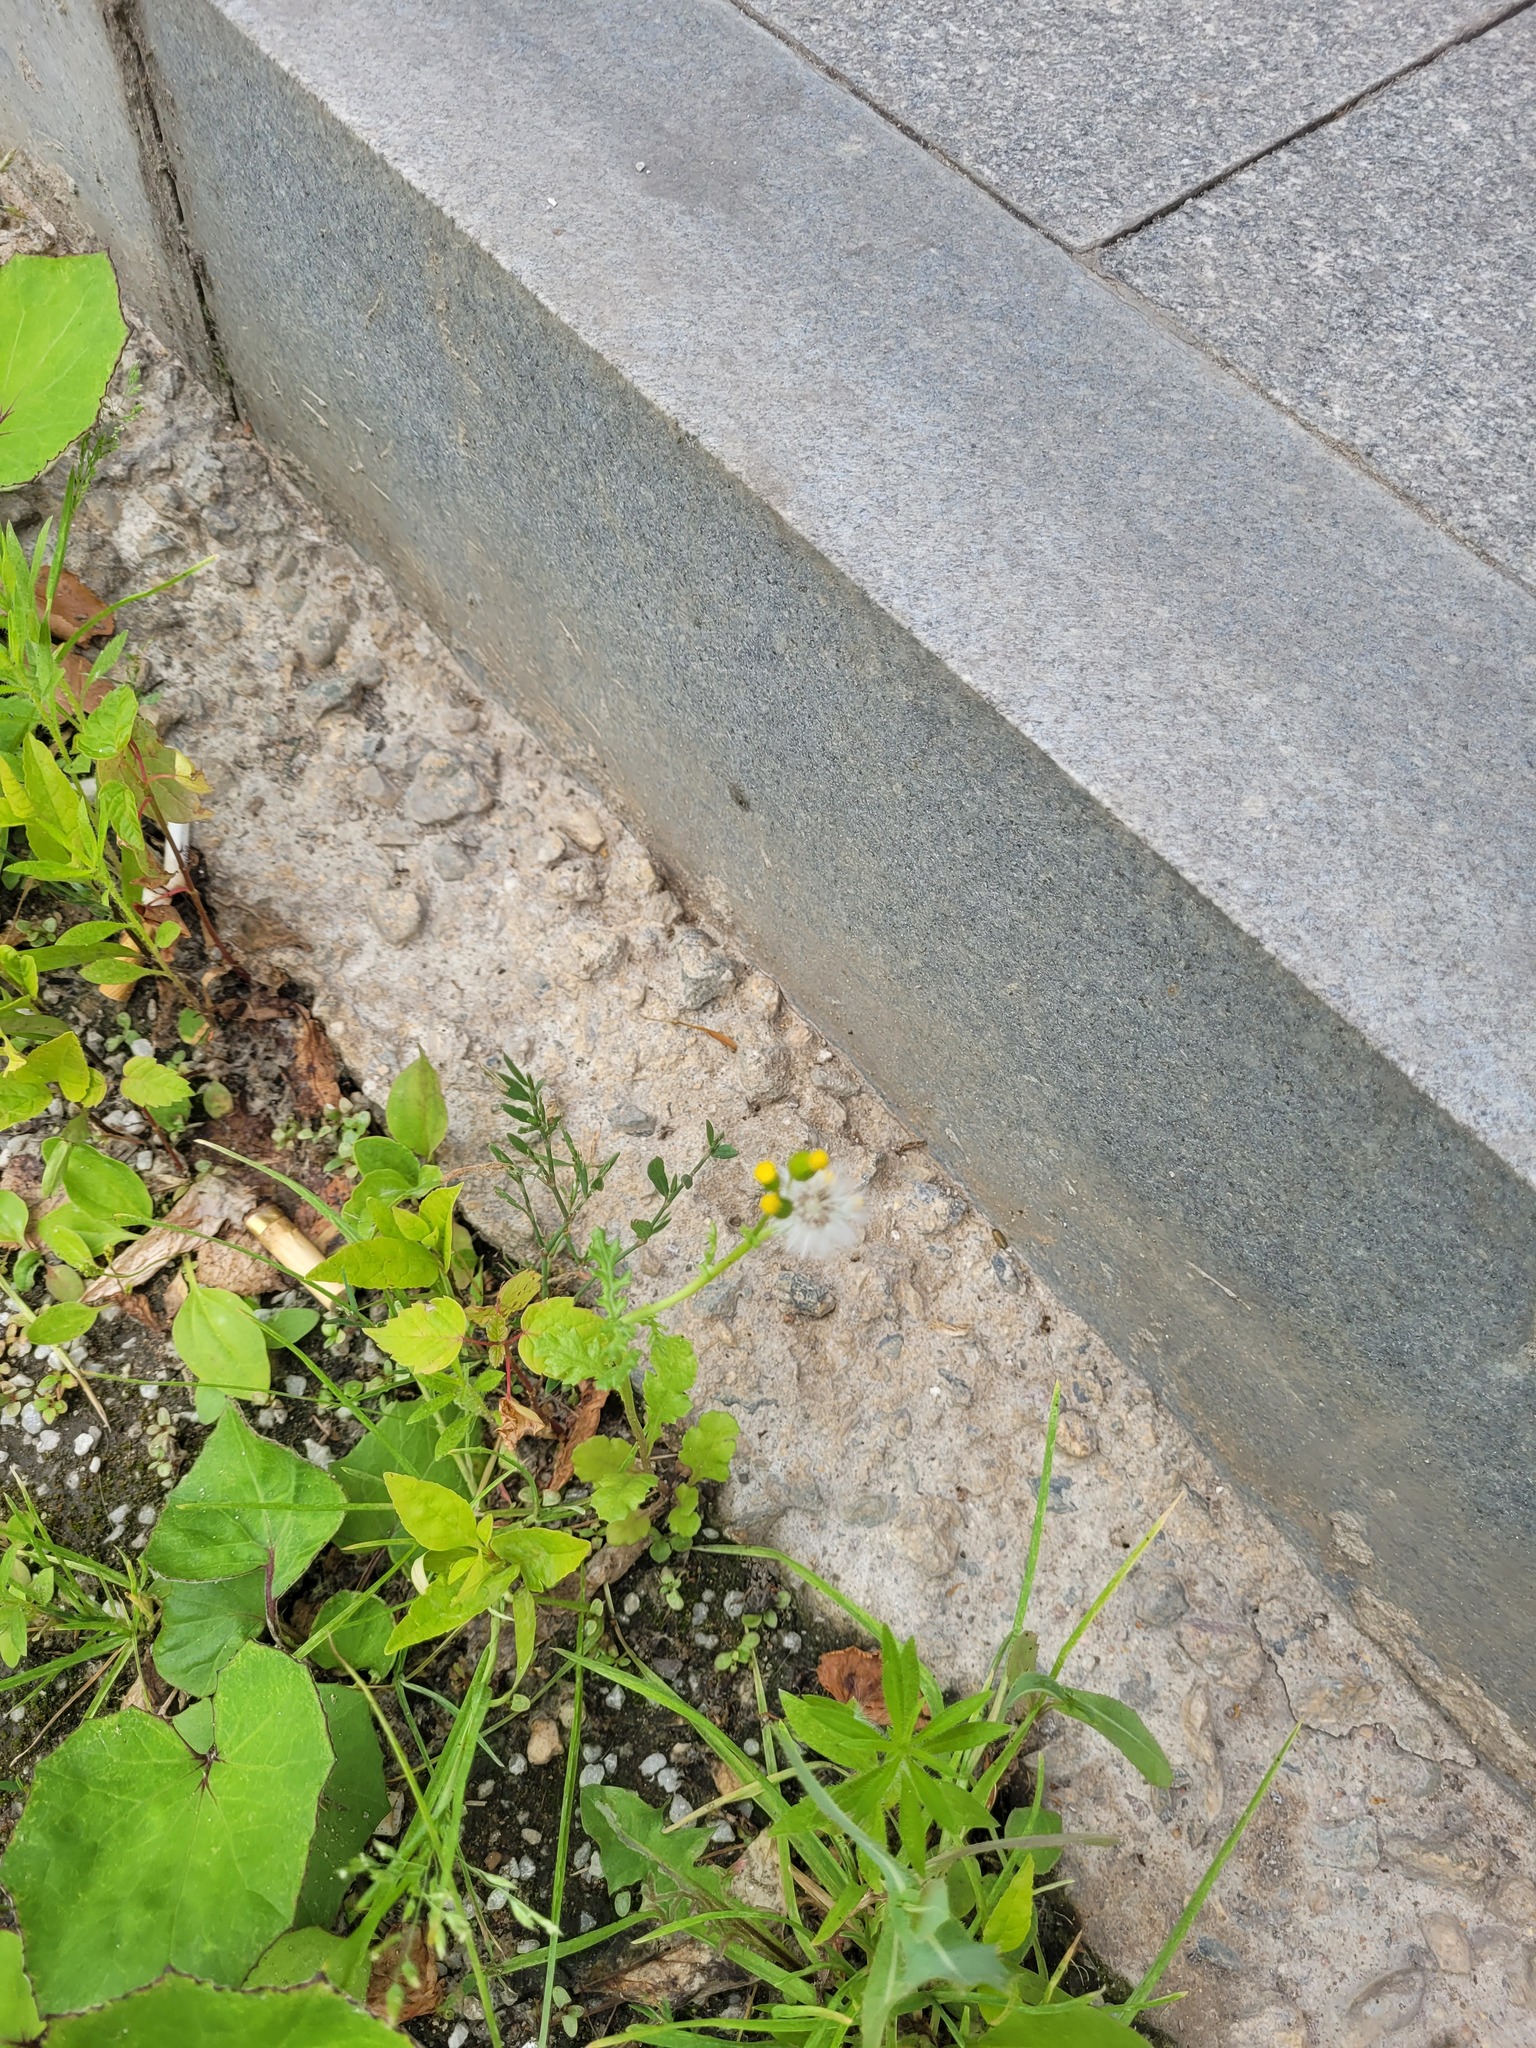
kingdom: Plantae
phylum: Tracheophyta
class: Magnoliopsida
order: Asterales
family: Asteraceae
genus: Senecio
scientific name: Senecio vulgaris
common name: Old-man-in-the-spring
